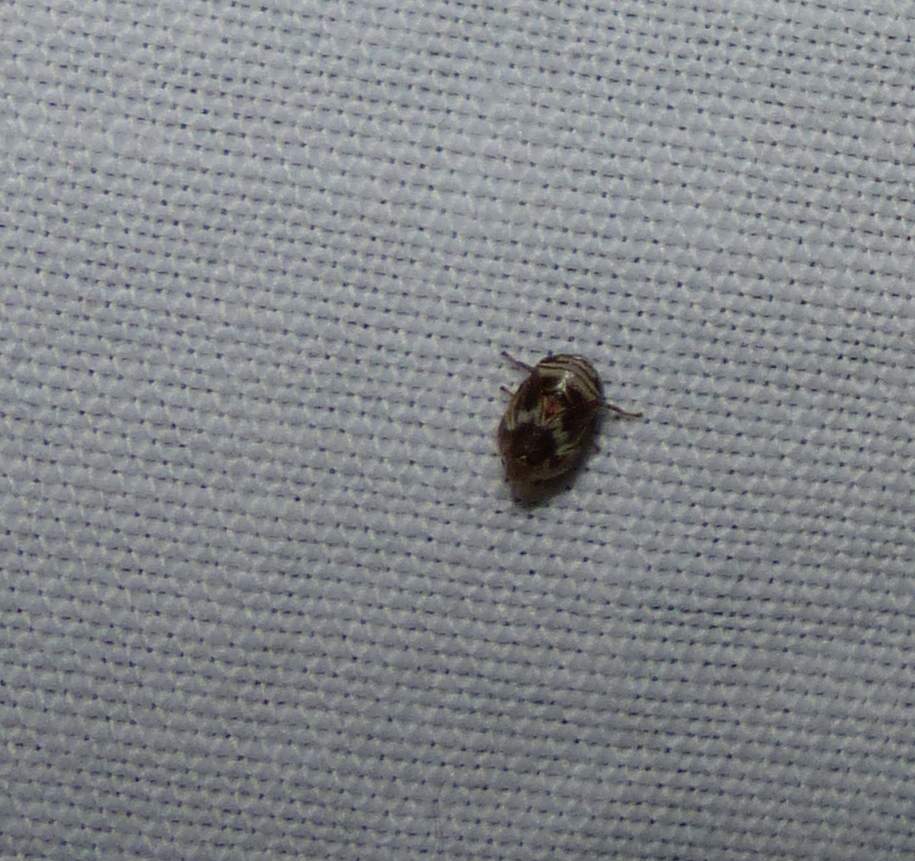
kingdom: Animalia
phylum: Arthropoda
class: Insecta
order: Hemiptera
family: Clastopteridae
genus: Clastoptera
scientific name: Clastoptera obtusa
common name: Alder spittlebug
